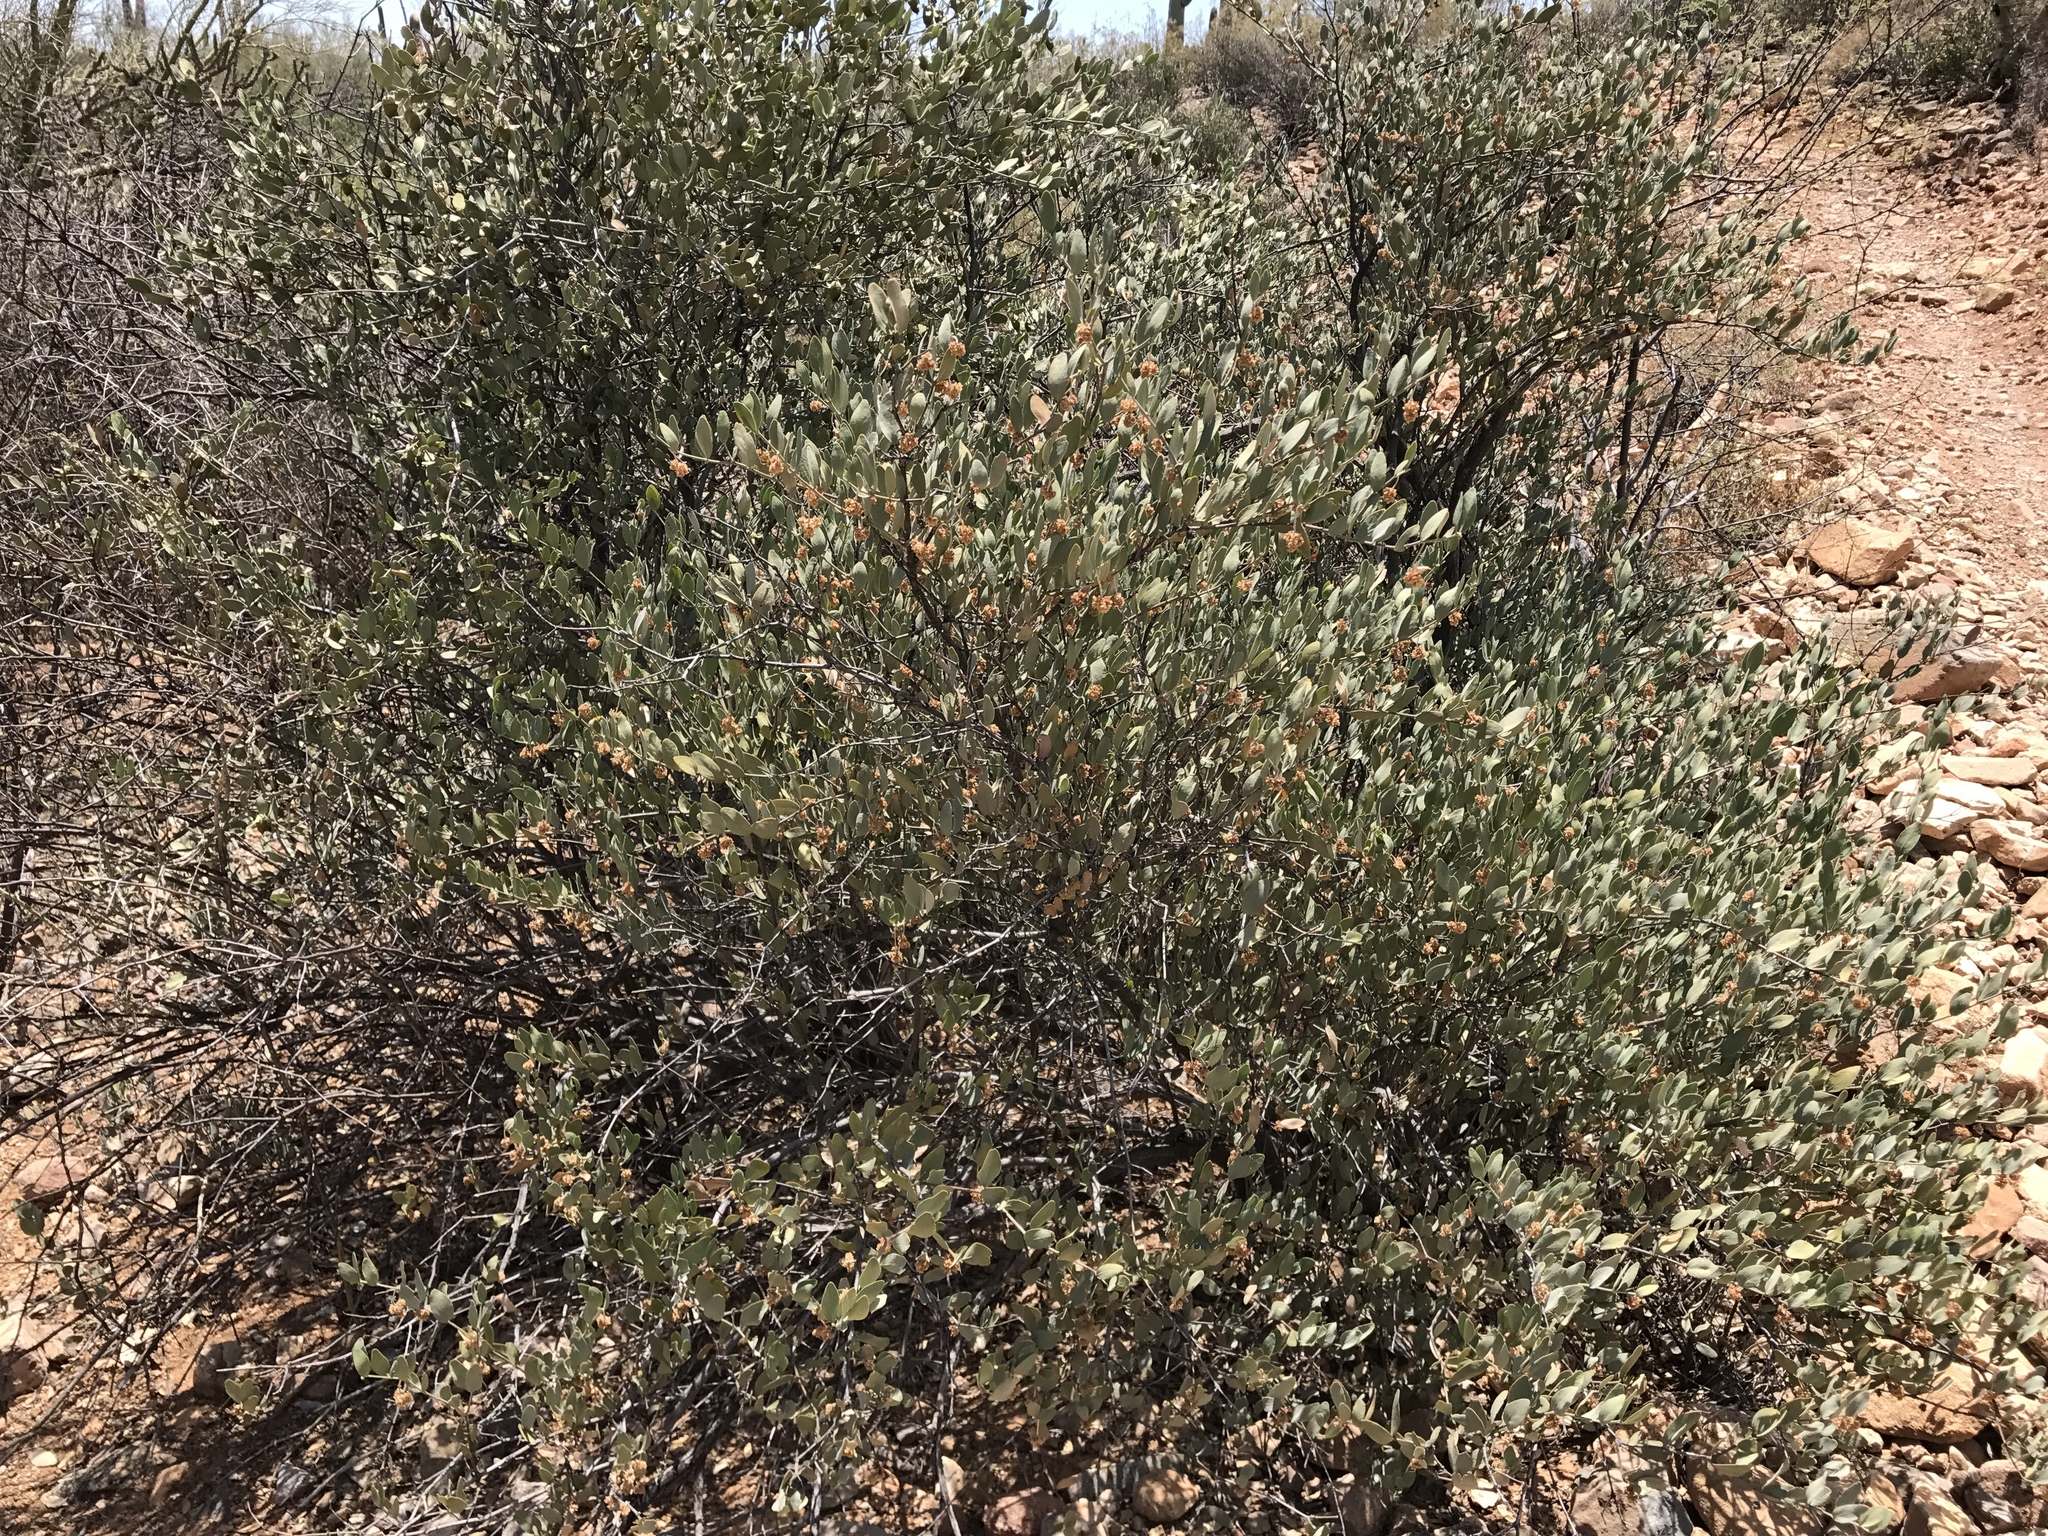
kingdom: Plantae
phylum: Tracheophyta
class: Magnoliopsida
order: Caryophyllales
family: Simmondsiaceae
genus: Simmondsia
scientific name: Simmondsia chinensis
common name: Jojoba
